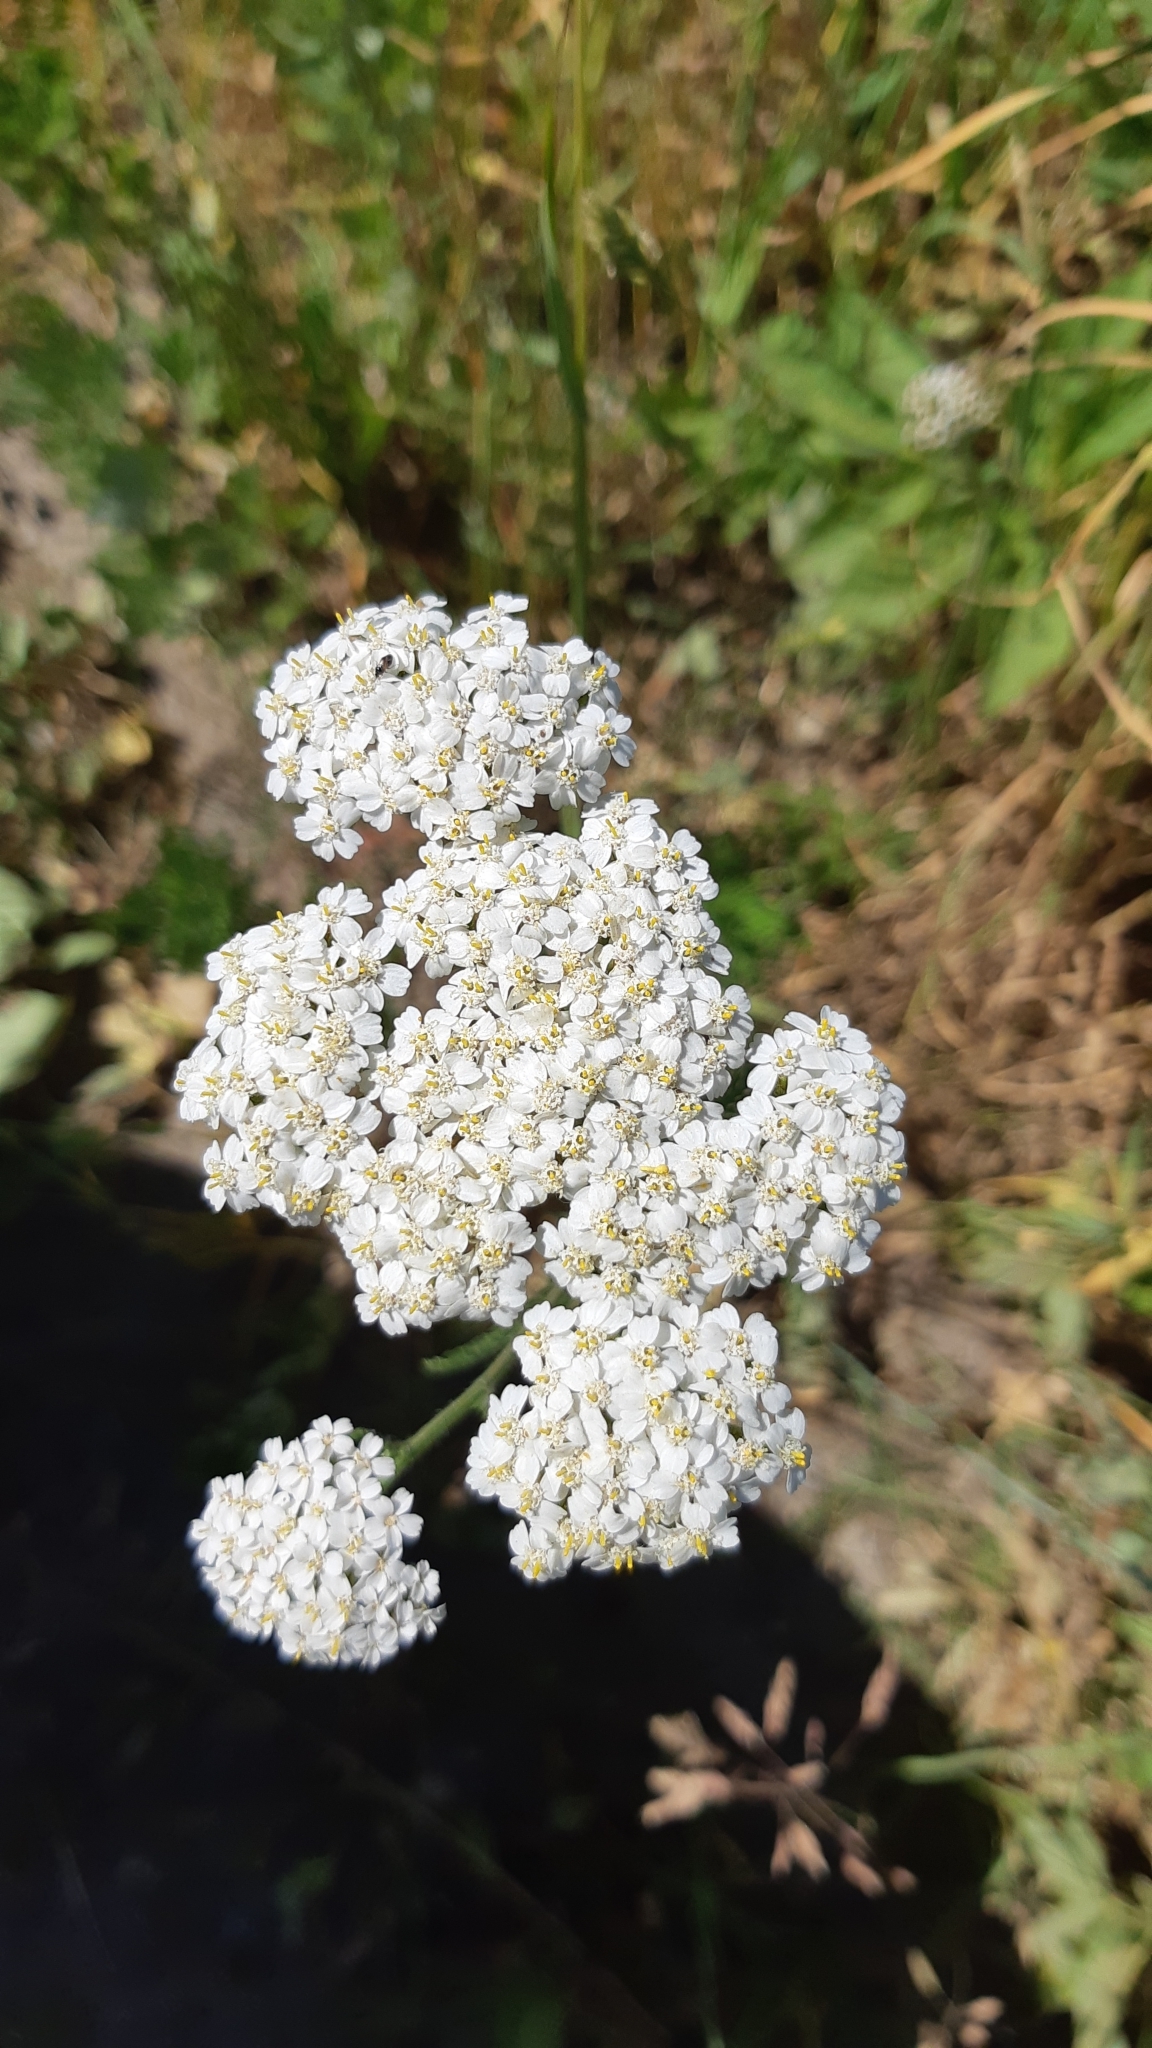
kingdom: Plantae
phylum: Tracheophyta
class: Magnoliopsida
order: Asterales
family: Asteraceae
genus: Achillea
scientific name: Achillea millefolium
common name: Yarrow
